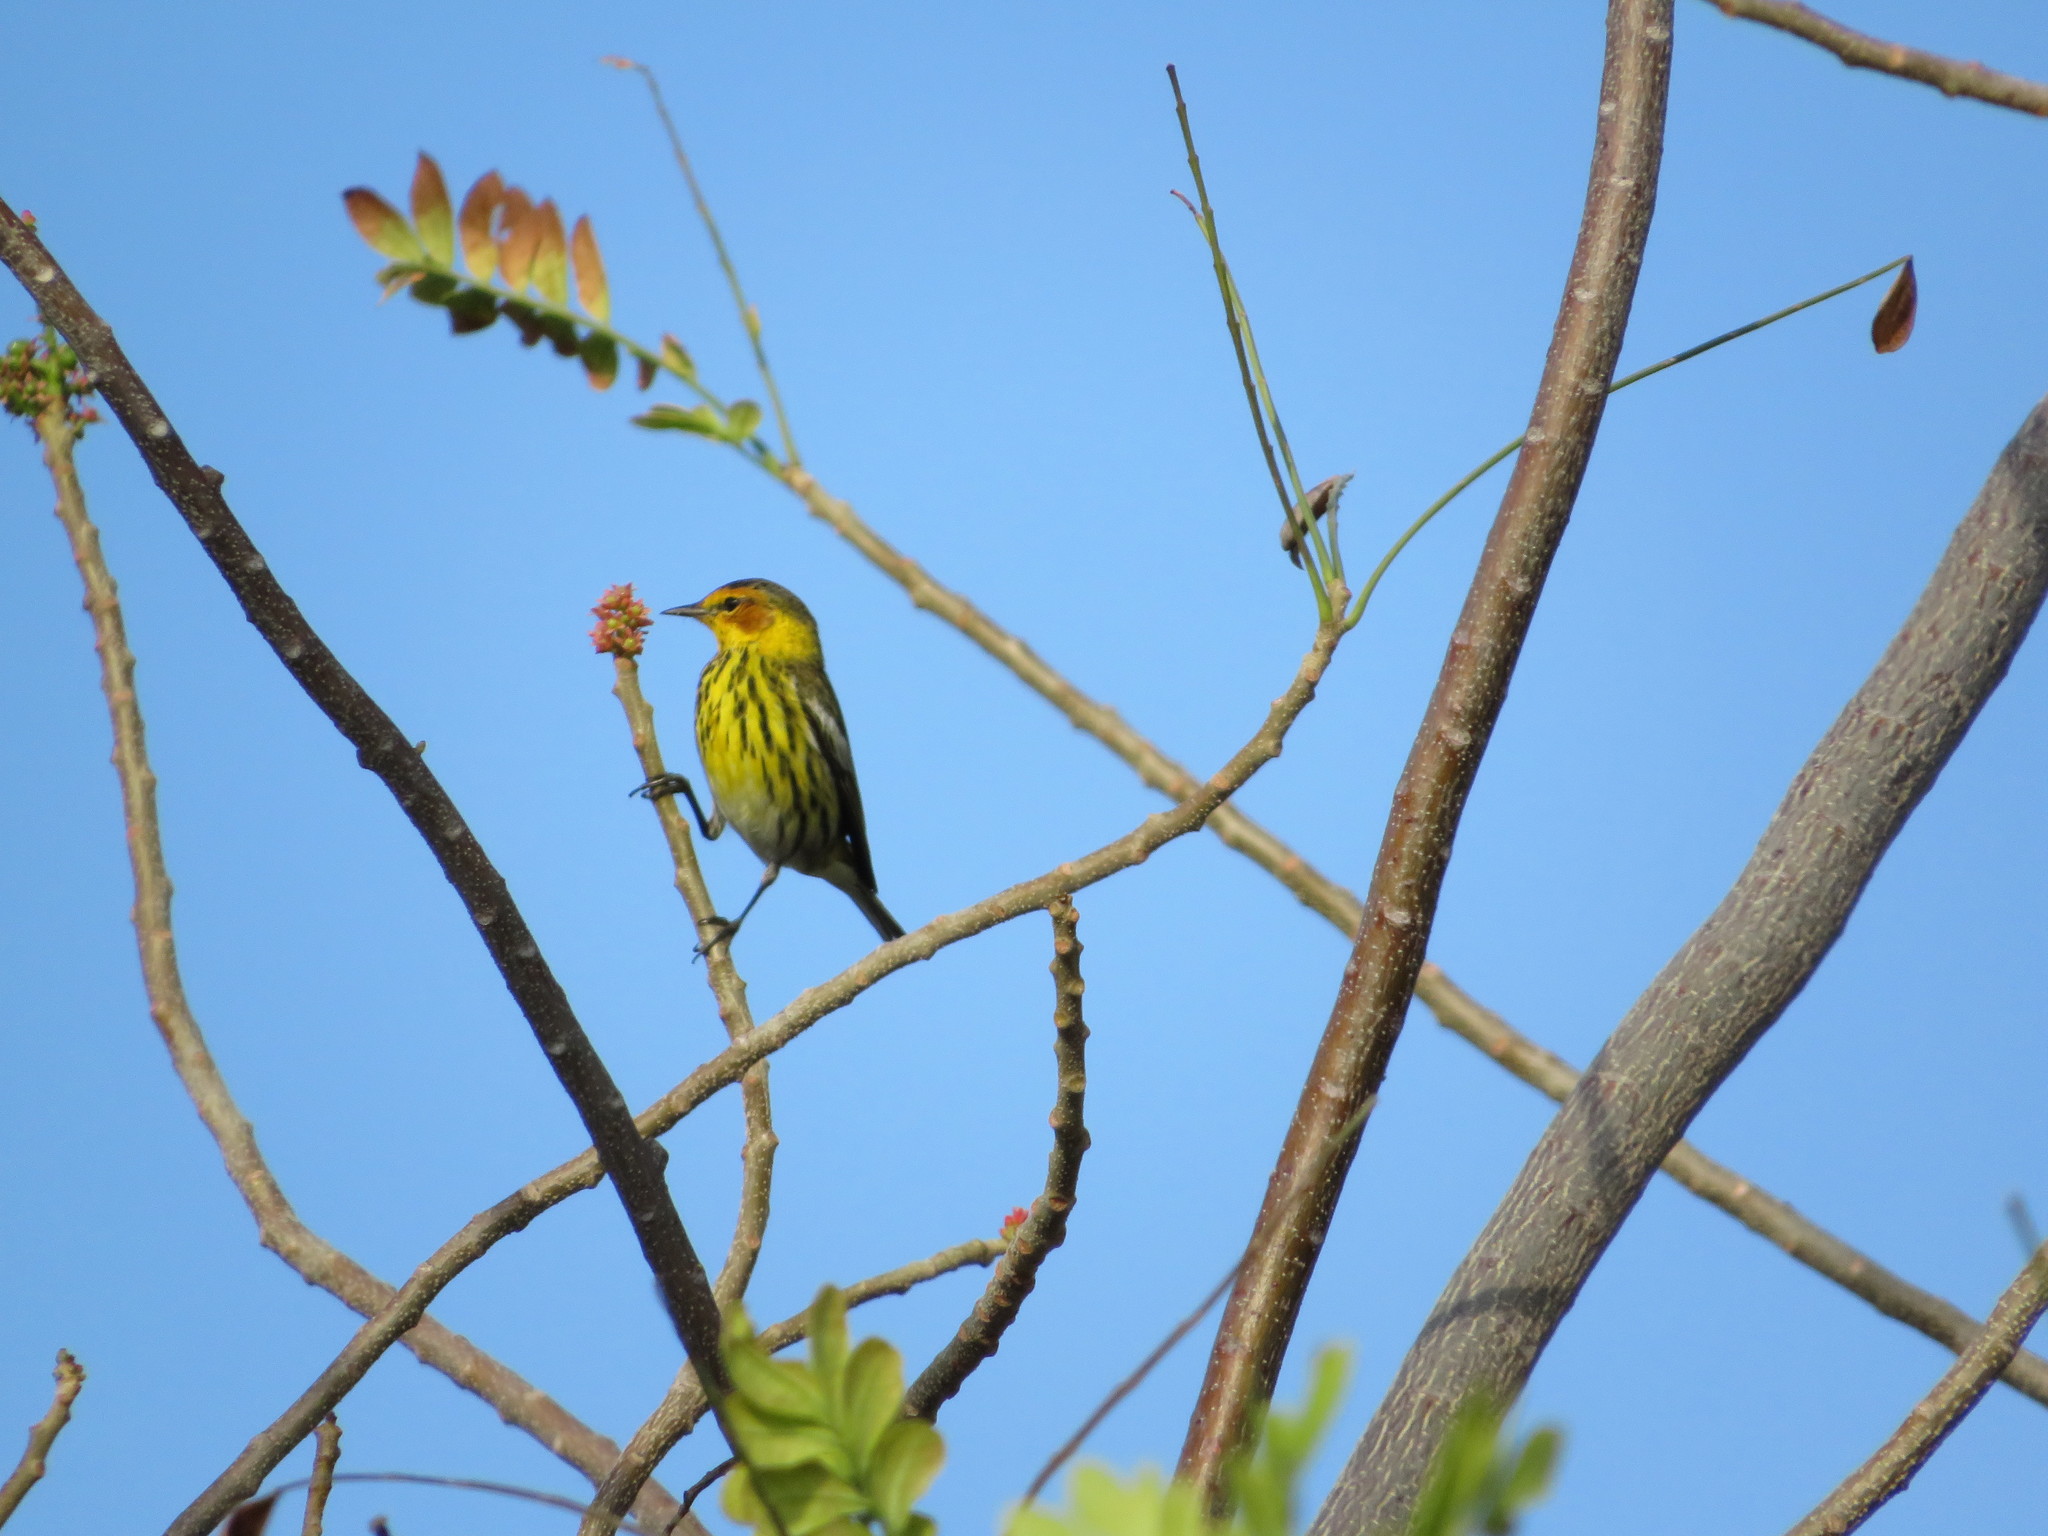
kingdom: Animalia
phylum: Chordata
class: Aves
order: Passeriformes
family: Parulidae
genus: Setophaga
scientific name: Setophaga tigrina
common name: Cape may warbler
